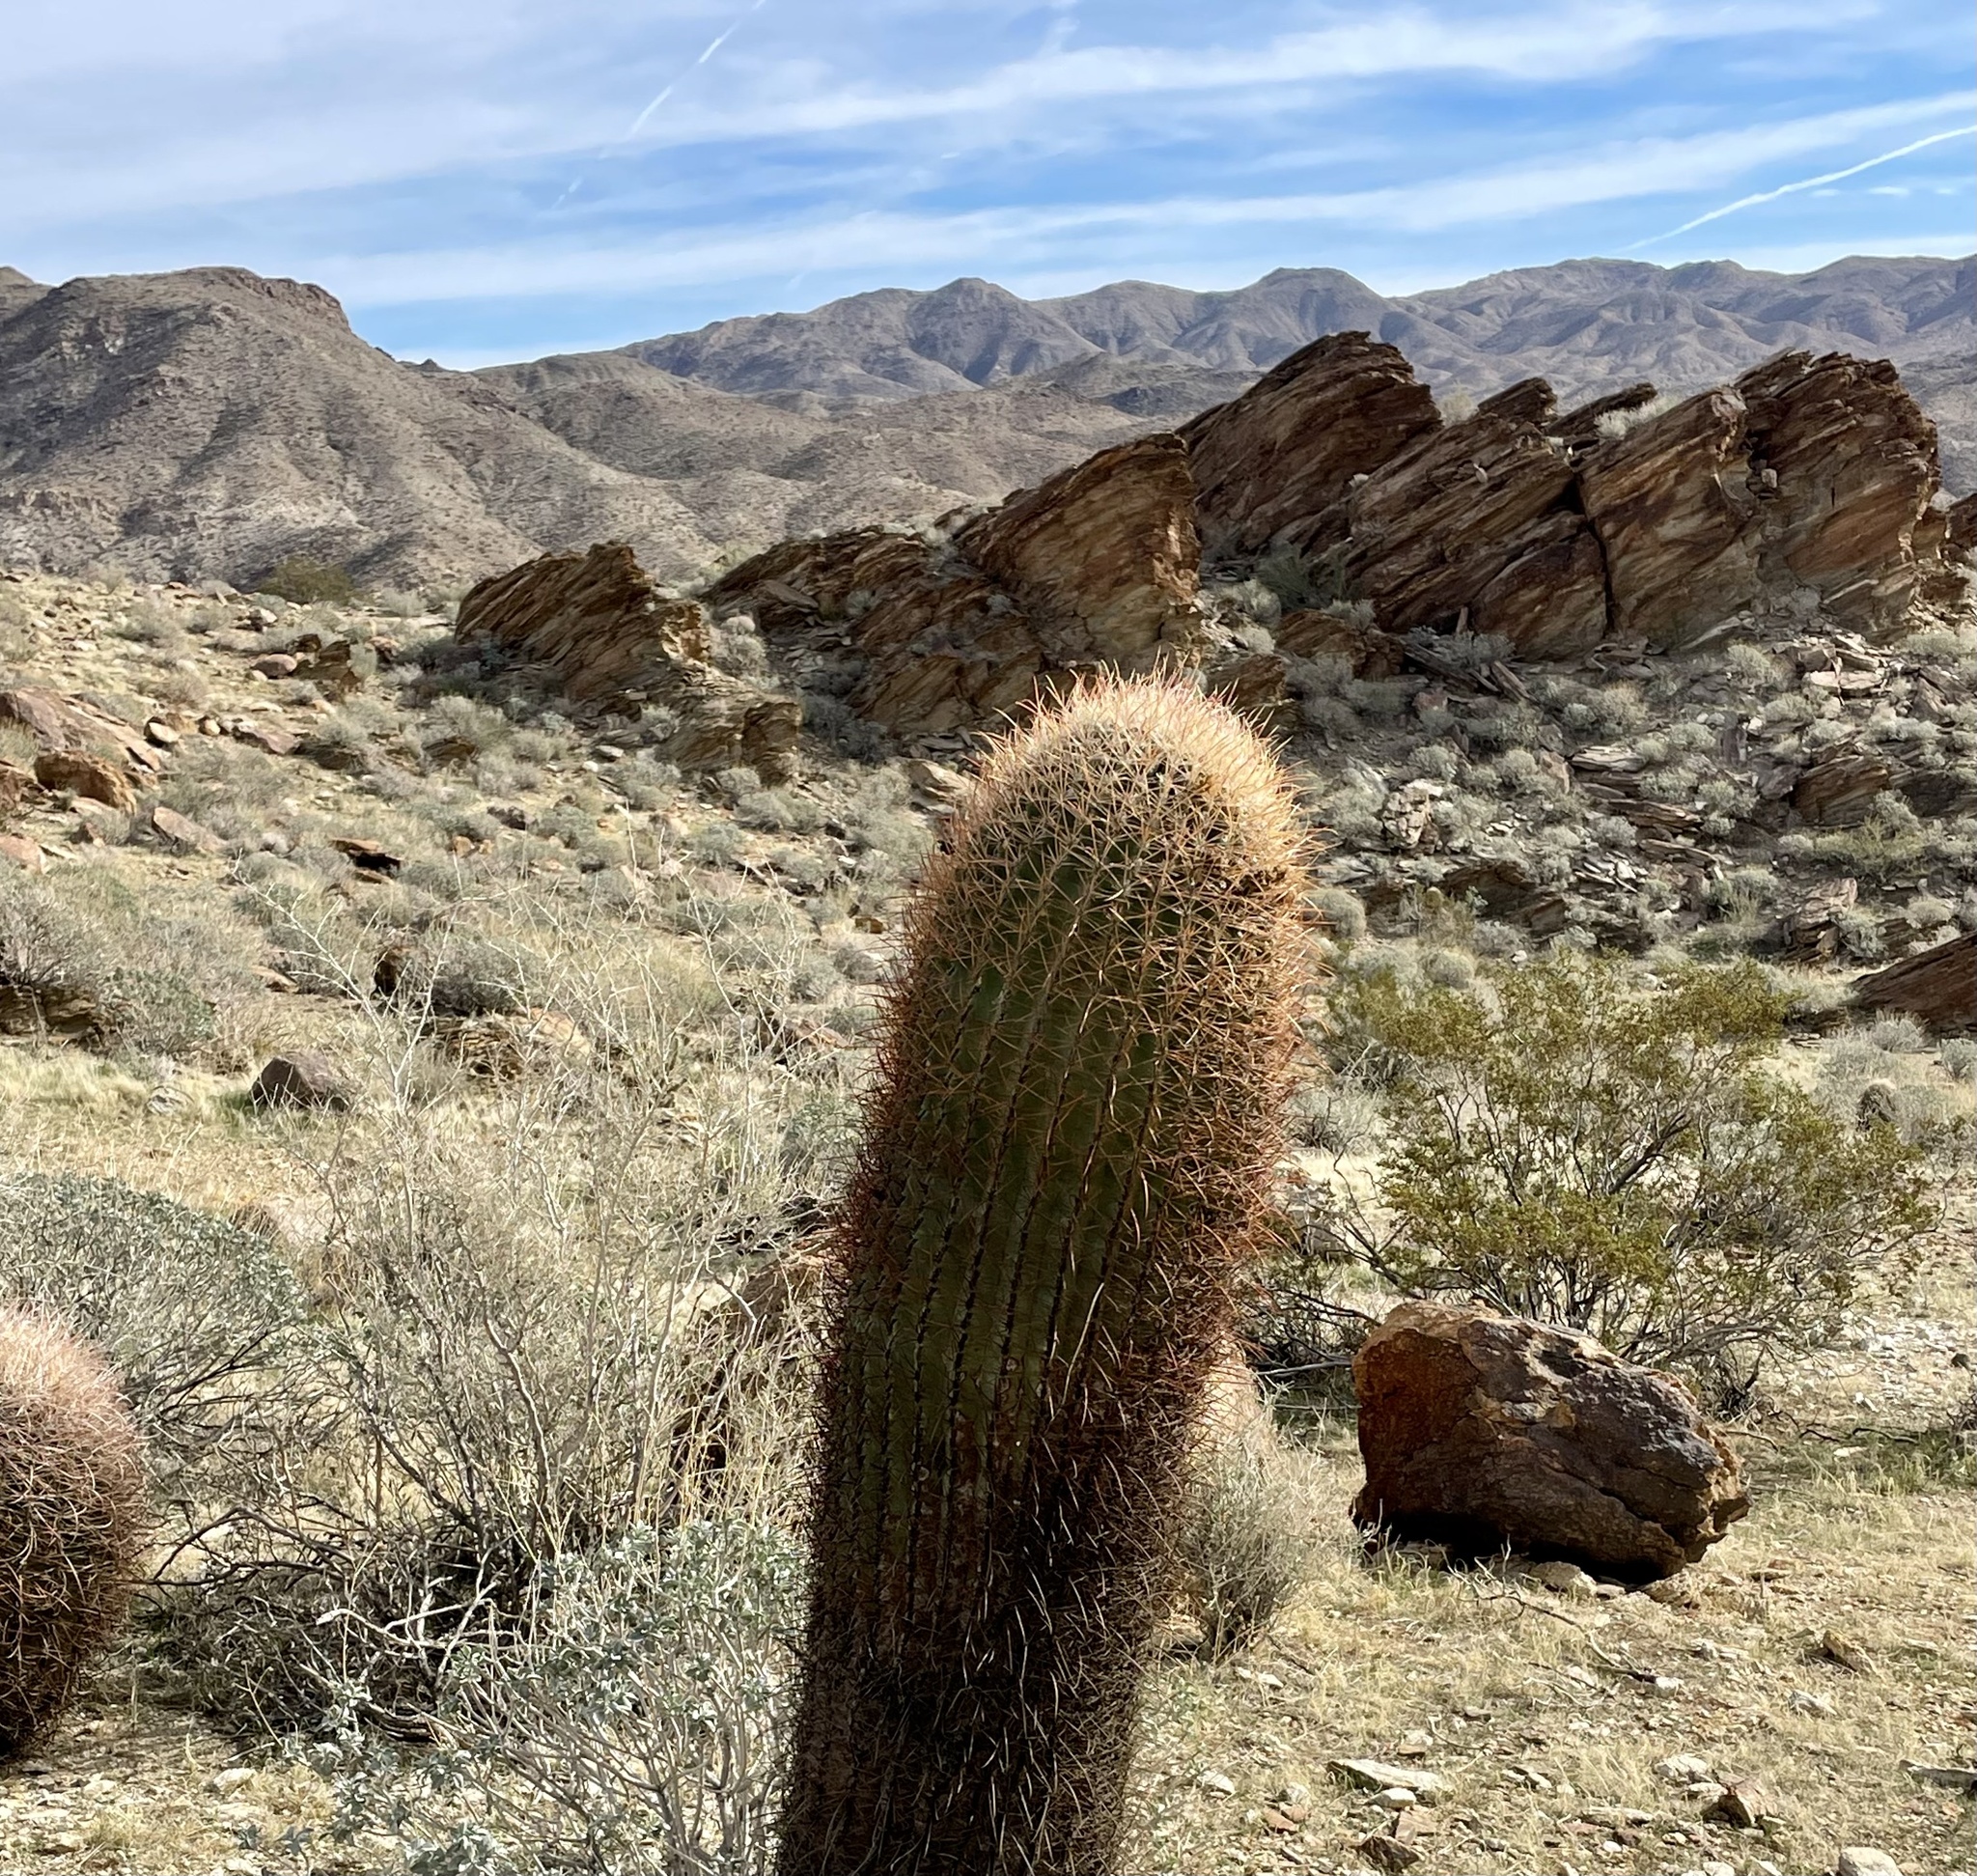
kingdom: Plantae
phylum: Tracheophyta
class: Magnoliopsida
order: Caryophyllales
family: Cactaceae
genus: Ferocactus
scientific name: Ferocactus cylindraceus
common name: California barrel cactus
